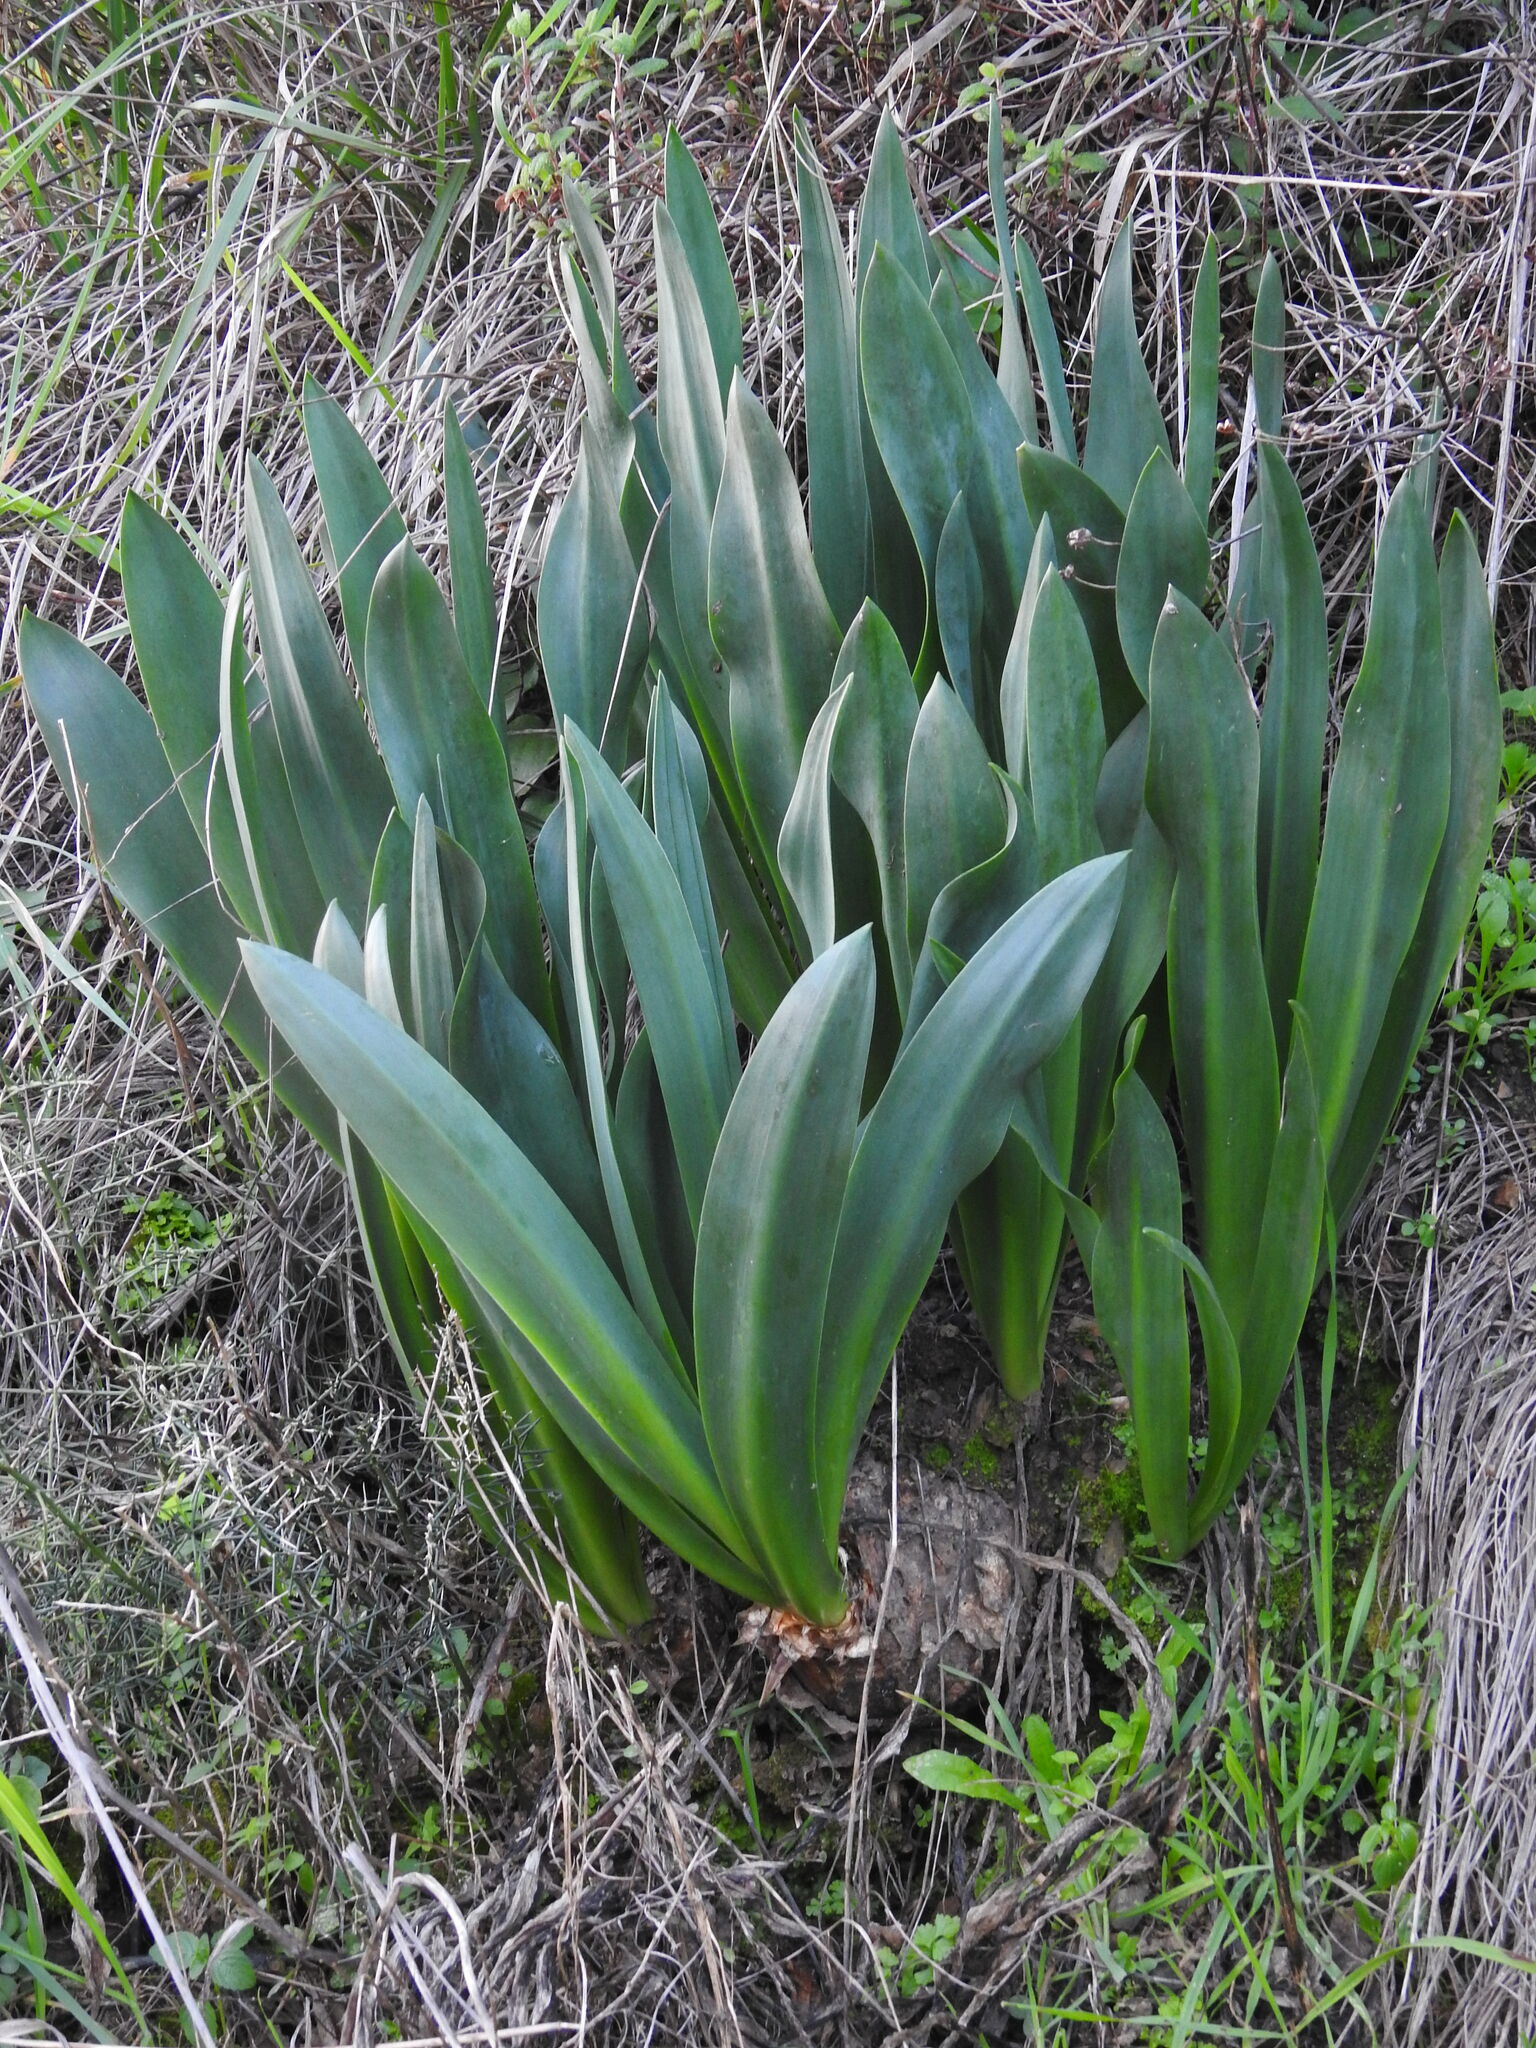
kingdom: Plantae
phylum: Tracheophyta
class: Liliopsida
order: Asparagales
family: Asparagaceae
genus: Drimia
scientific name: Drimia maritima
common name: Maritime squill
